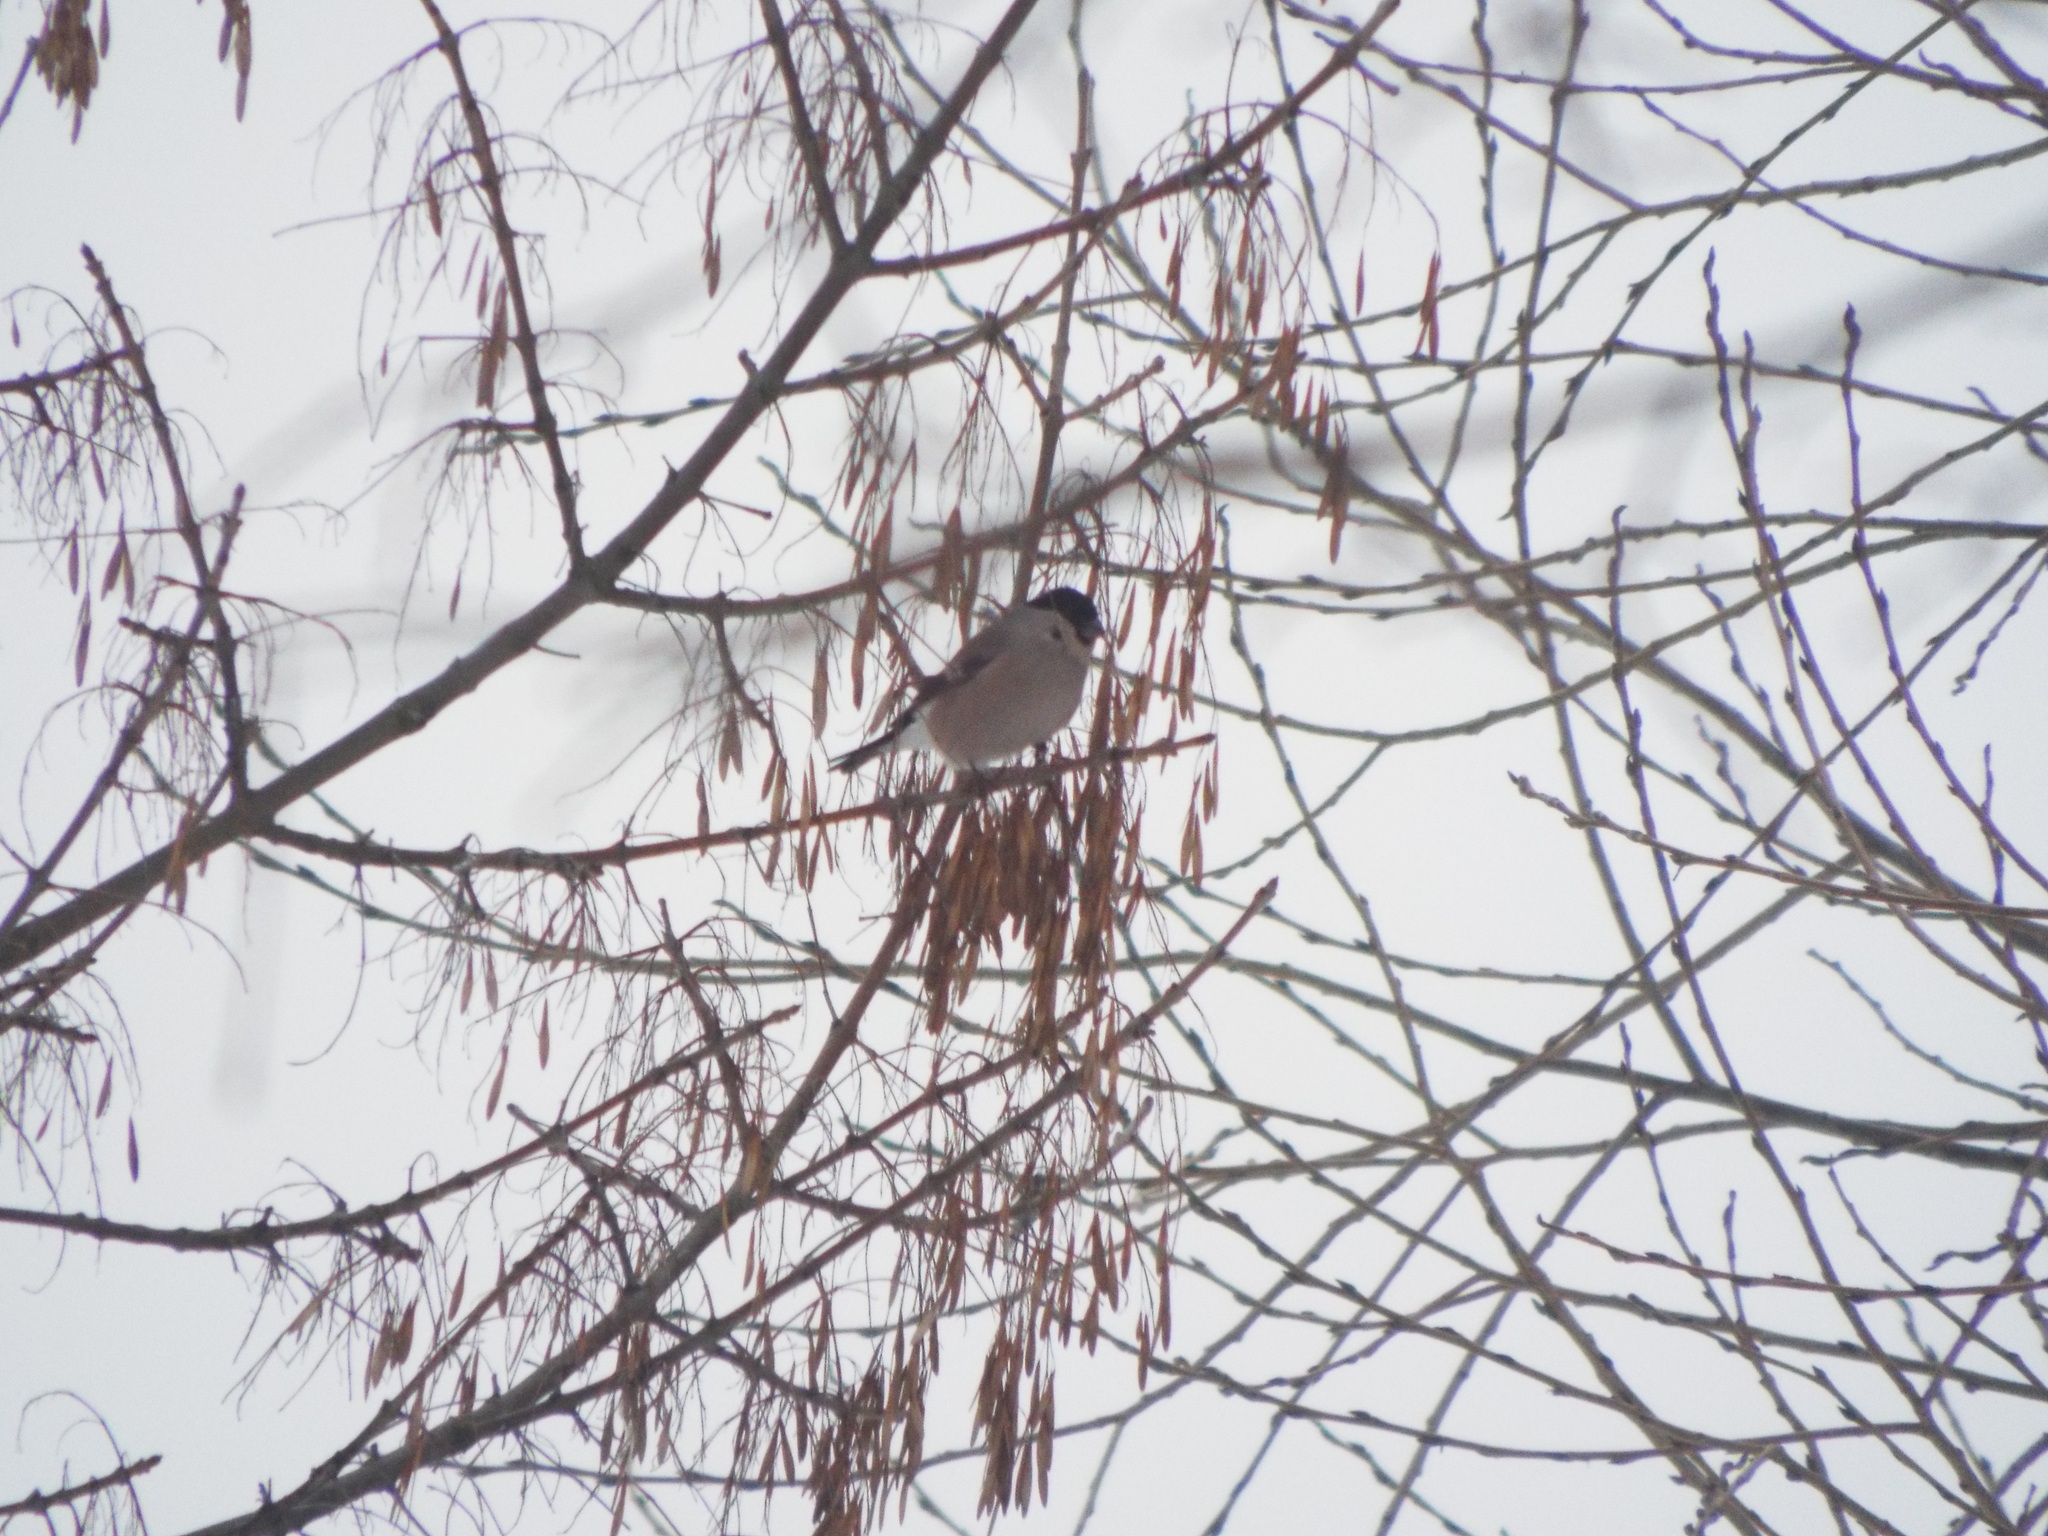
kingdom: Animalia
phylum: Chordata
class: Aves
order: Passeriformes
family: Fringillidae
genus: Pyrrhula
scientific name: Pyrrhula pyrrhula
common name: Eurasian bullfinch
